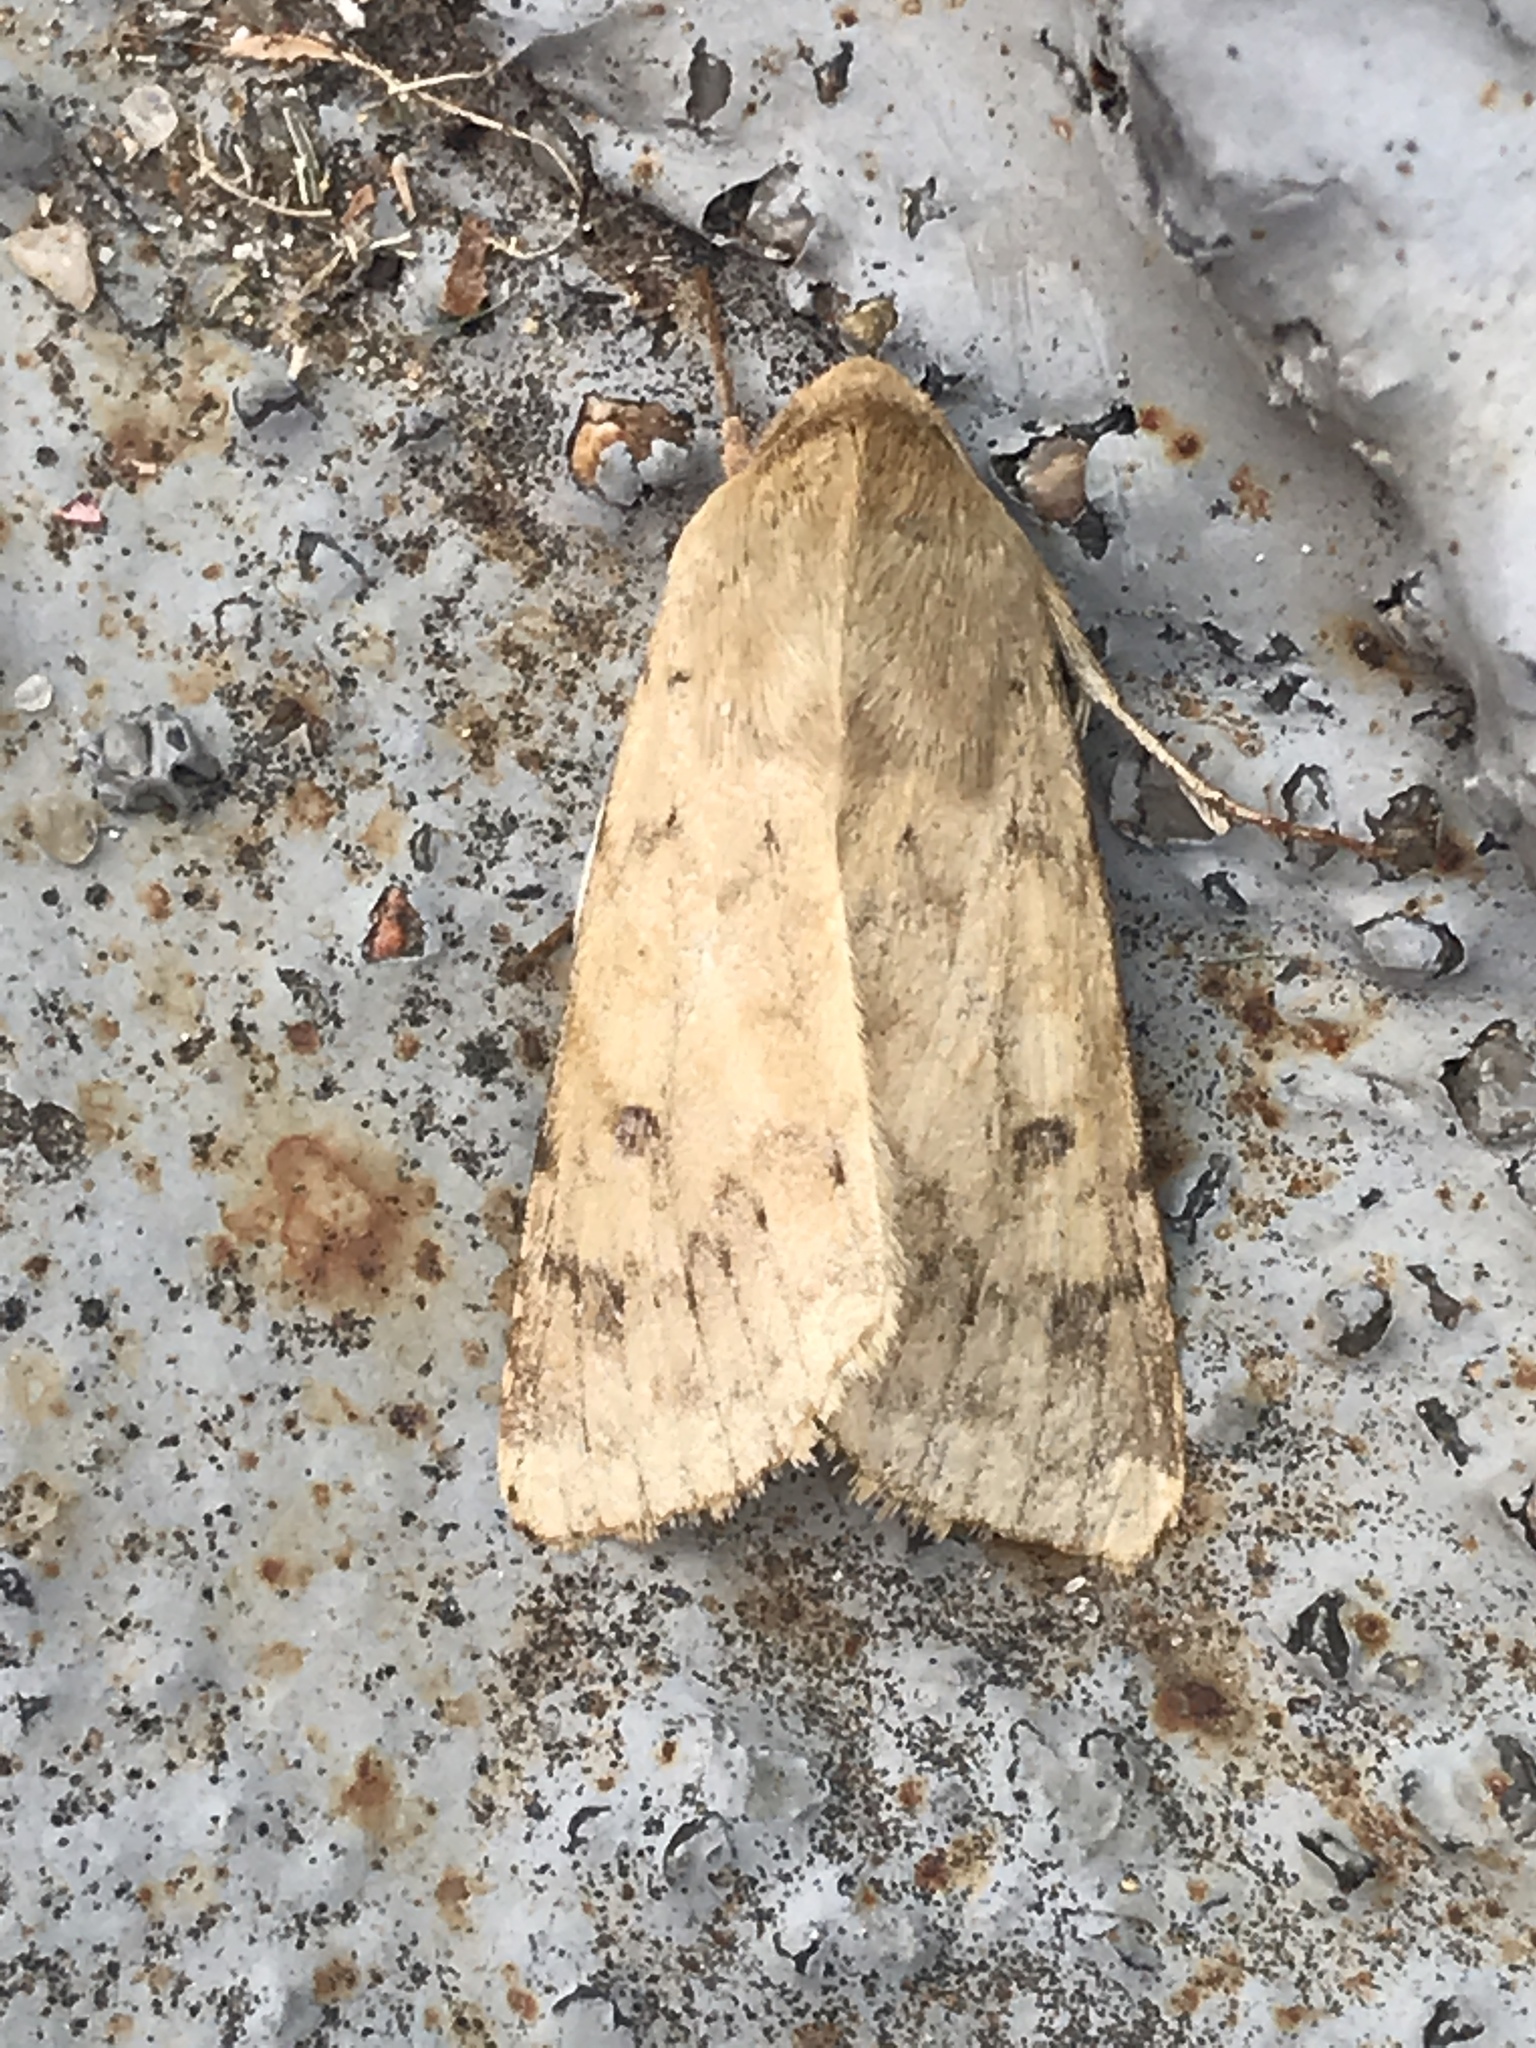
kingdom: Animalia
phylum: Arthropoda
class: Insecta
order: Lepidoptera
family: Noctuidae
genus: Helicoverpa
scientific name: Helicoverpa zea
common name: Bollworm
